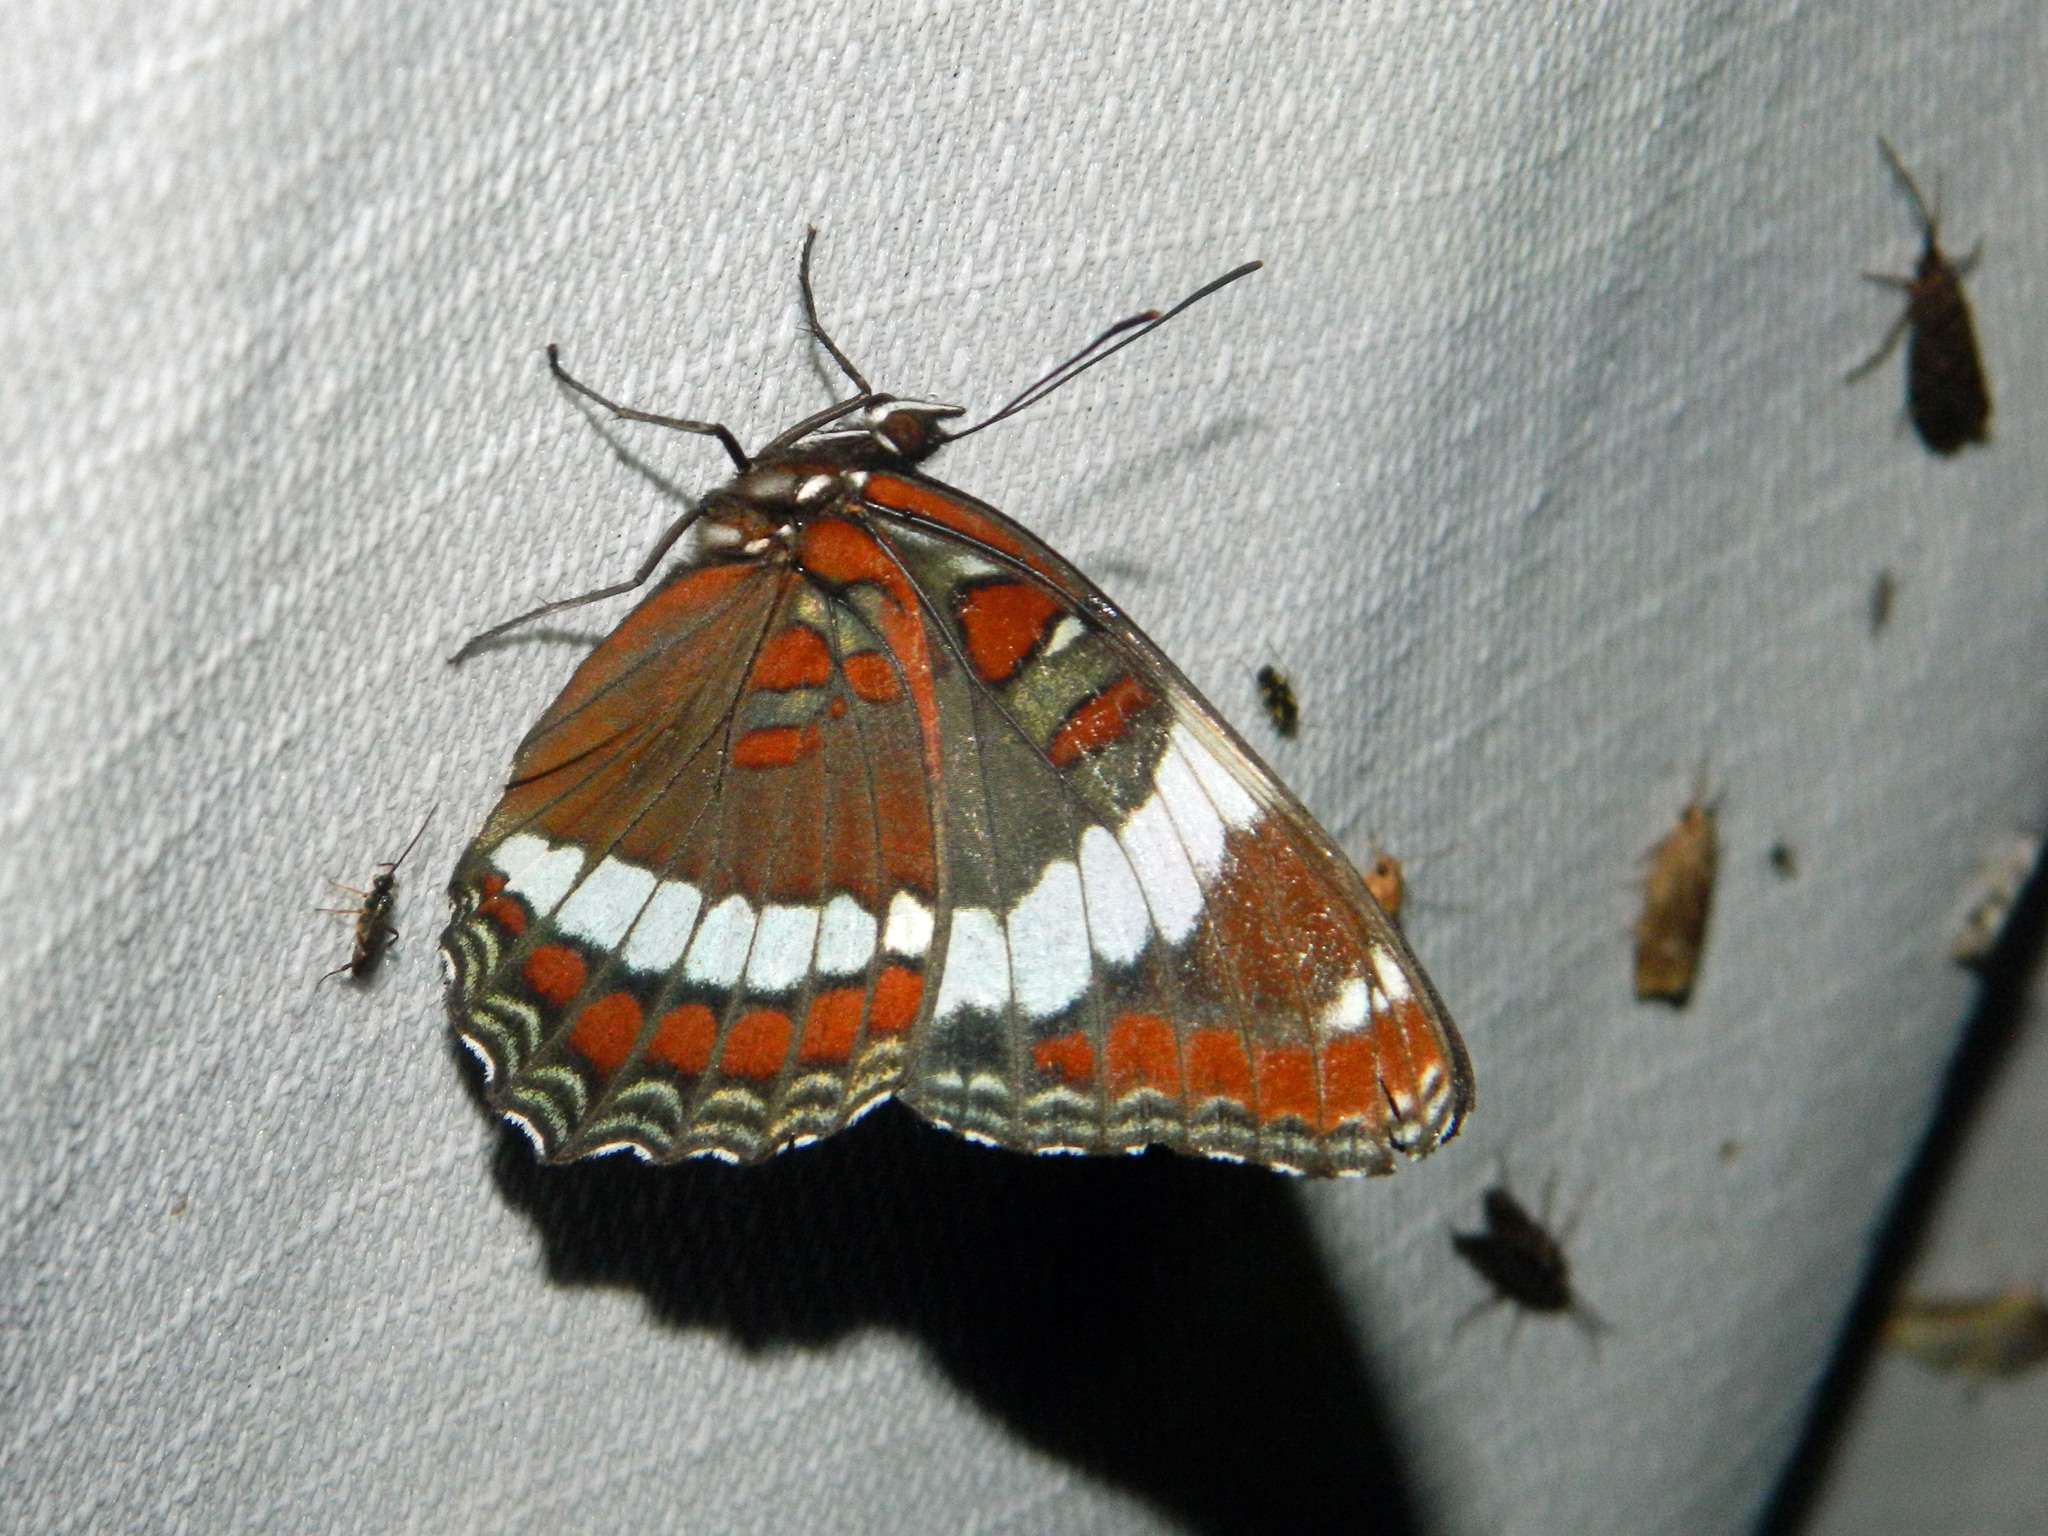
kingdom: Animalia
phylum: Arthropoda
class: Insecta
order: Lepidoptera
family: Nymphalidae
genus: Limenitis
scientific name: Limenitis arthemis
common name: Red-spotted admiral
